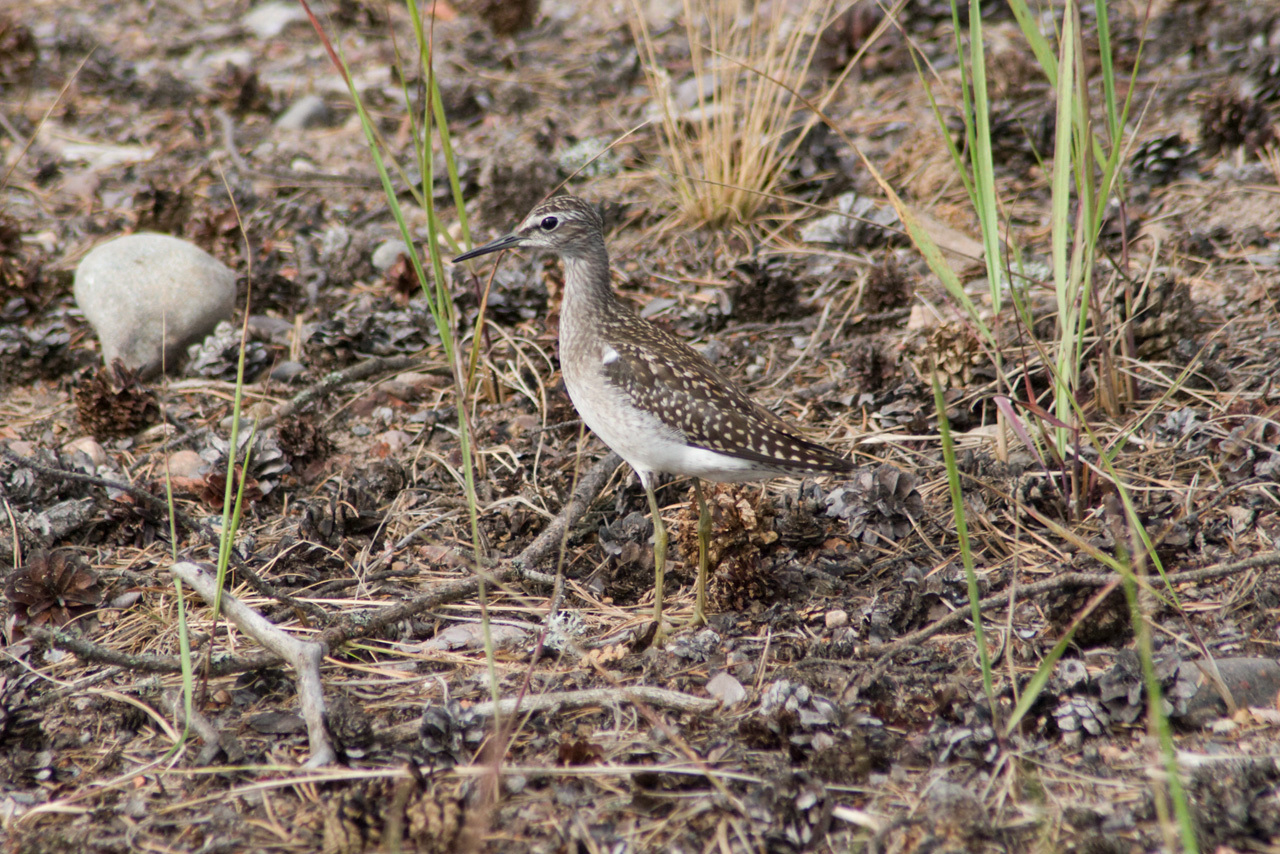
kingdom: Animalia
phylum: Chordata
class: Aves
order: Charadriiformes
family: Scolopacidae
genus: Tringa
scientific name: Tringa glareola
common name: Wood sandpiper
